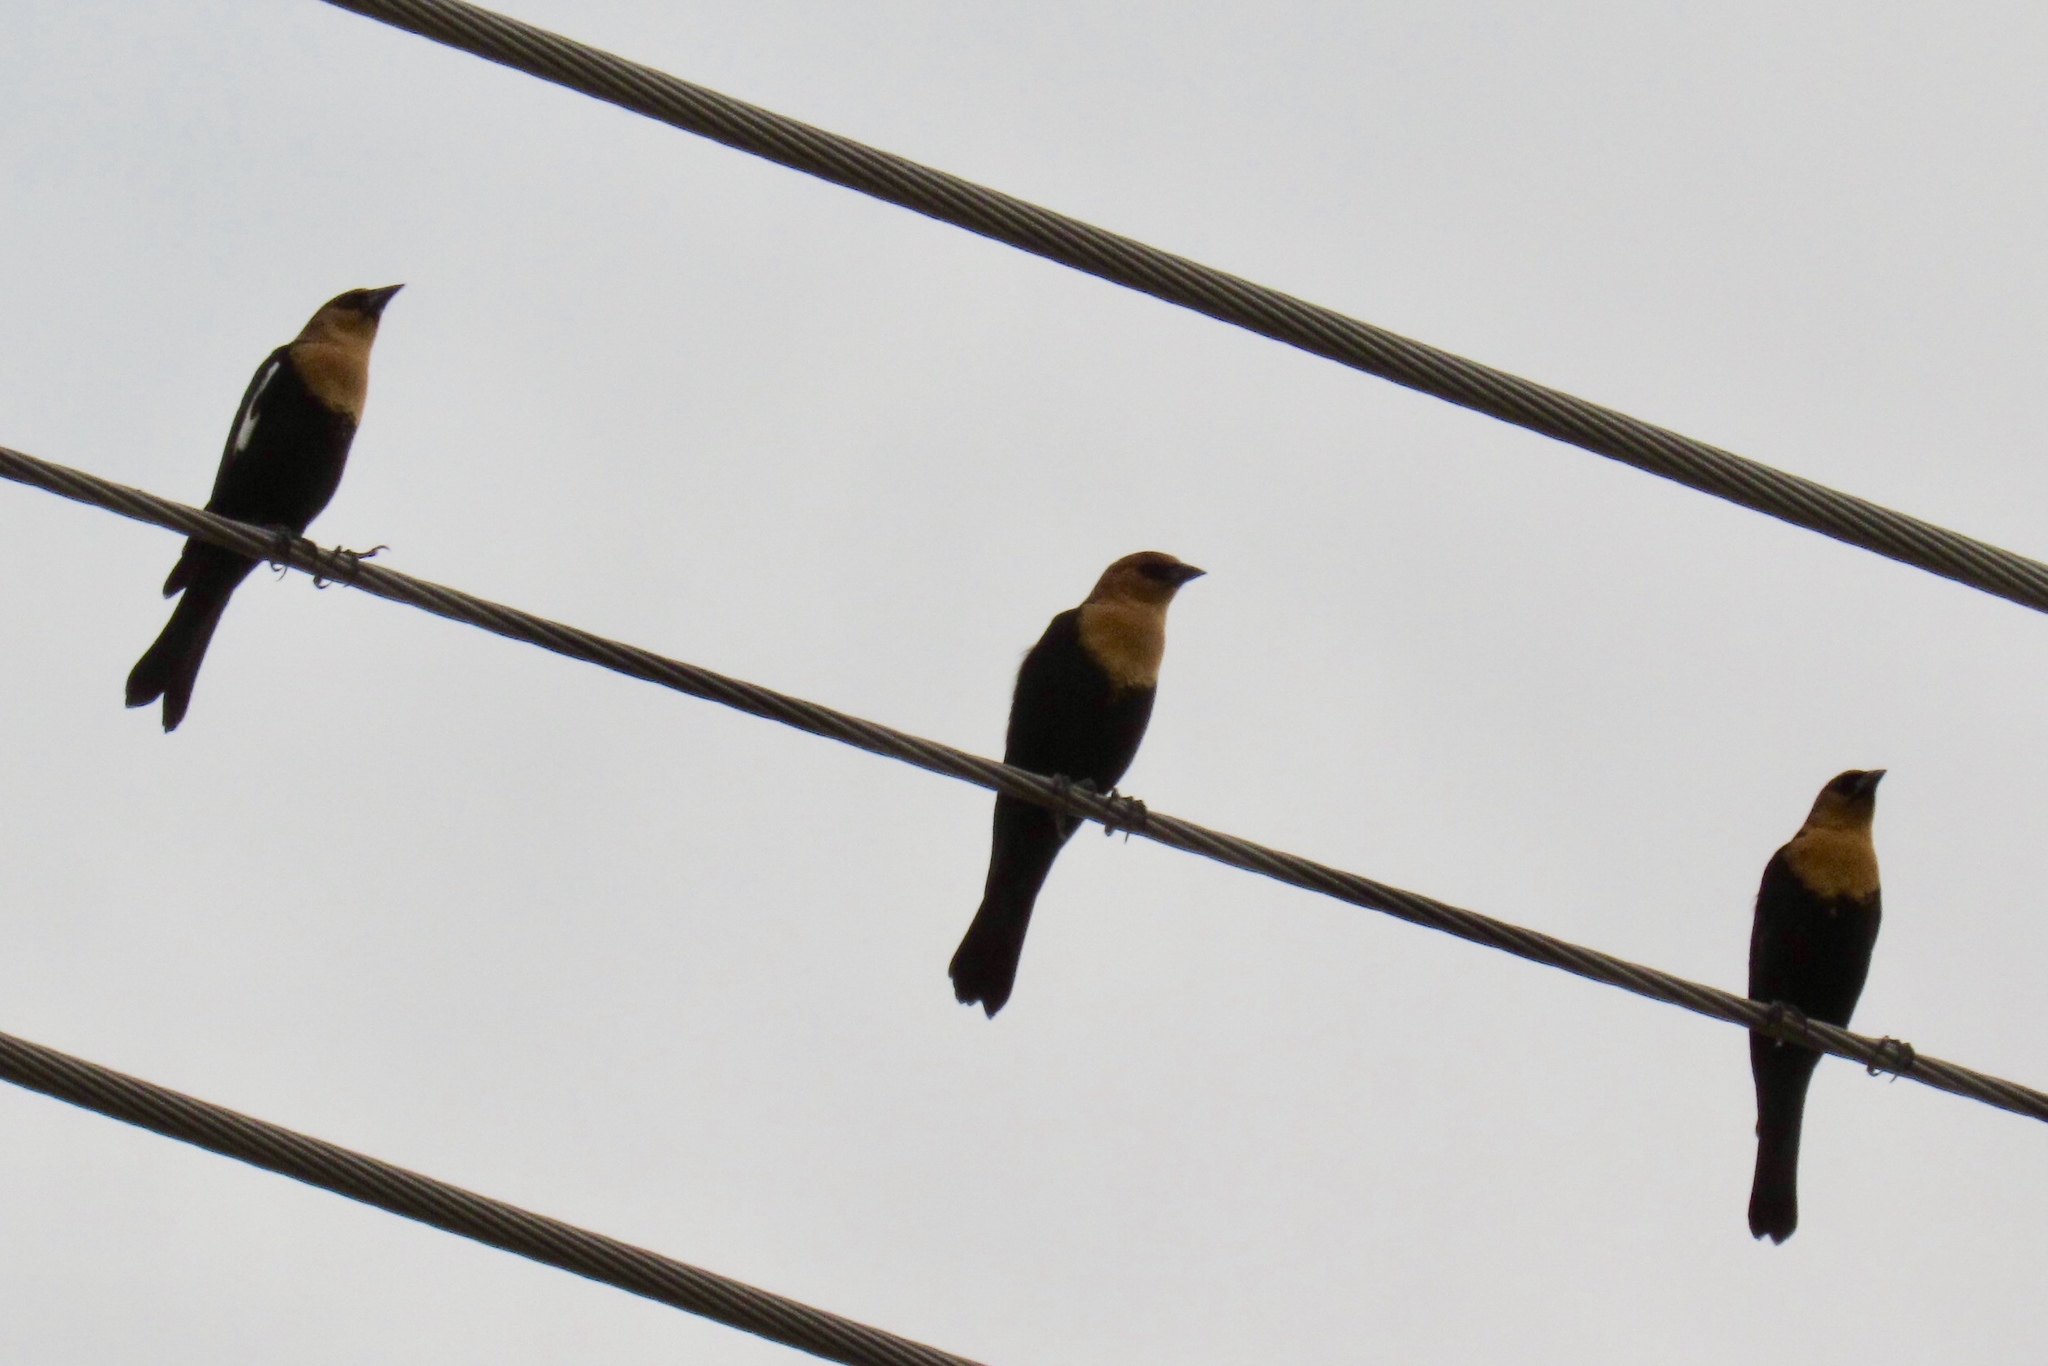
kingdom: Animalia
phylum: Chordata
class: Aves
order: Passeriformes
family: Icteridae
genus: Xanthocephalus
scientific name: Xanthocephalus xanthocephalus
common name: Yellow-headed blackbird
